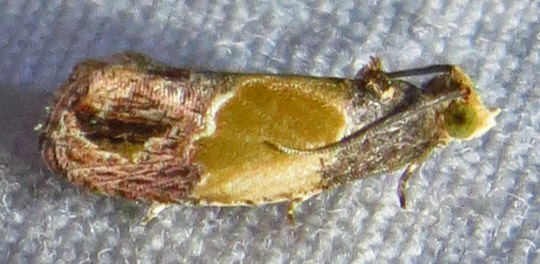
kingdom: Animalia
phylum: Arthropoda
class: Insecta
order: Lepidoptera
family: Tortricidae
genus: Eumarozia
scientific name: Eumarozia malachitana
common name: Sculptured moth
